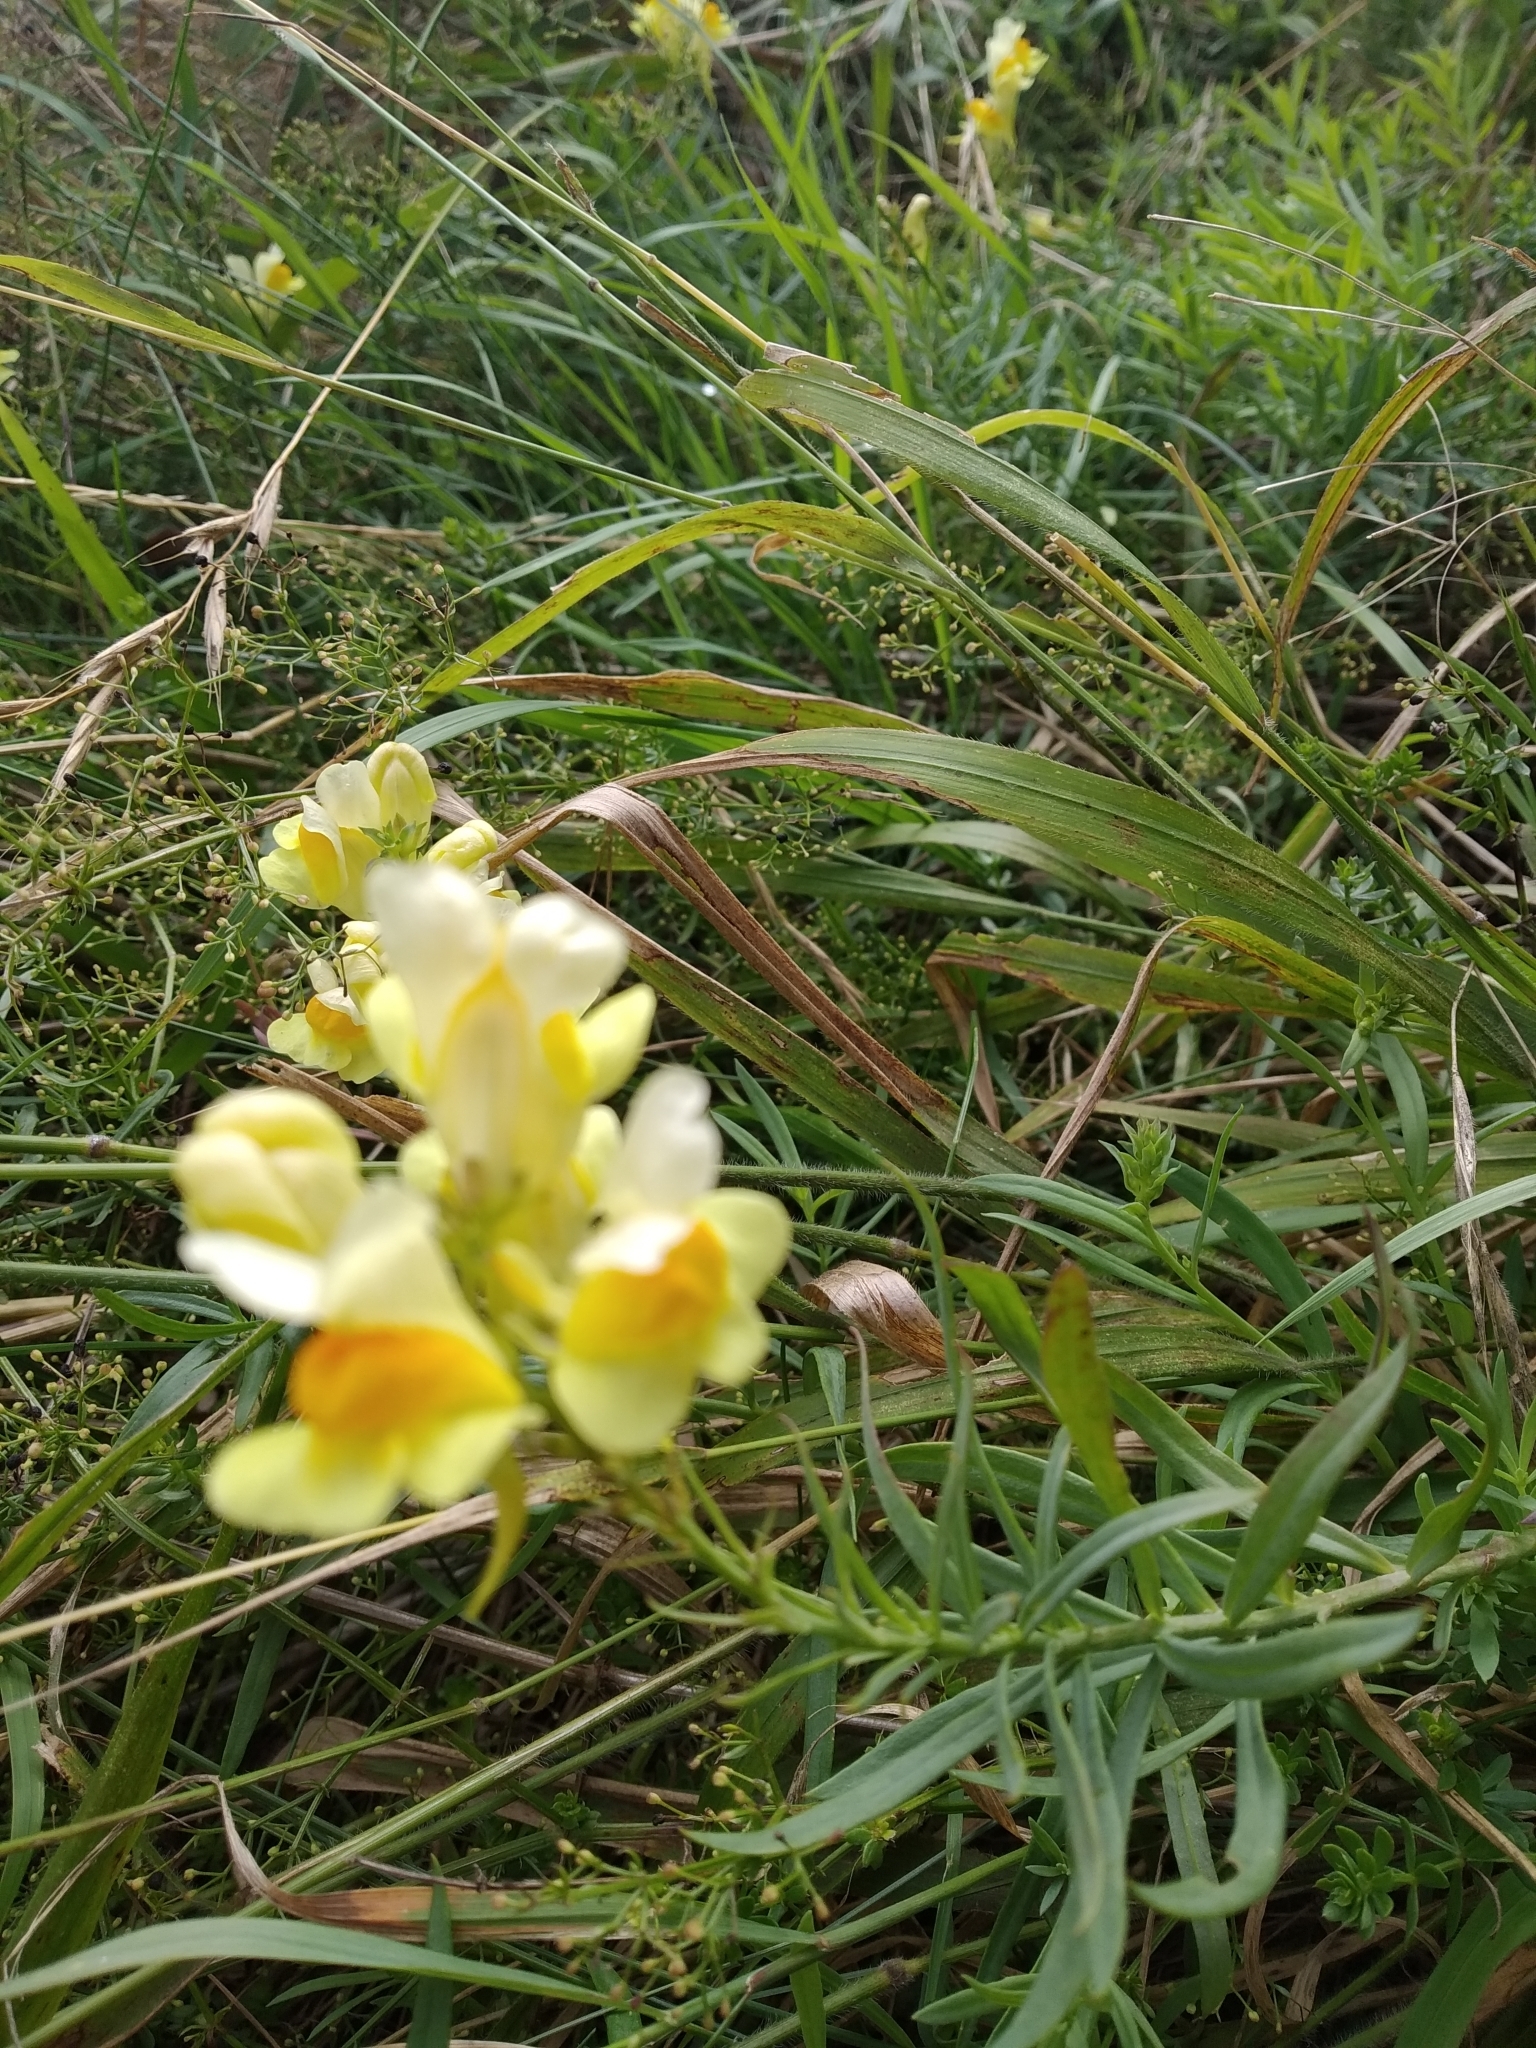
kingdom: Plantae
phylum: Tracheophyta
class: Magnoliopsida
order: Lamiales
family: Plantaginaceae
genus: Linaria
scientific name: Linaria vulgaris
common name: Butter and eggs
